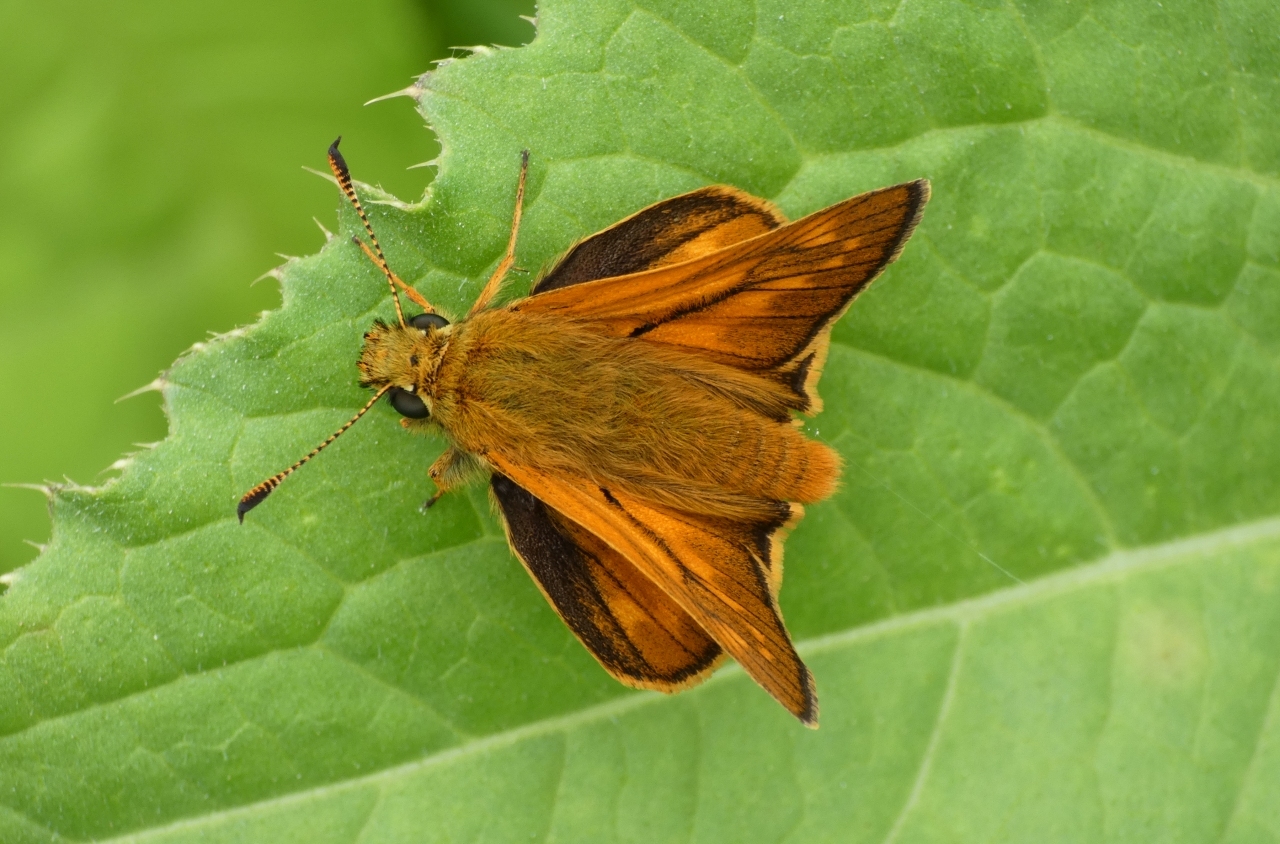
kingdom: Animalia
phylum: Arthropoda
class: Insecta
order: Lepidoptera
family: Hesperiidae
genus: Ochlodes
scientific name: Ochlodes venata
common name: Large skipper
